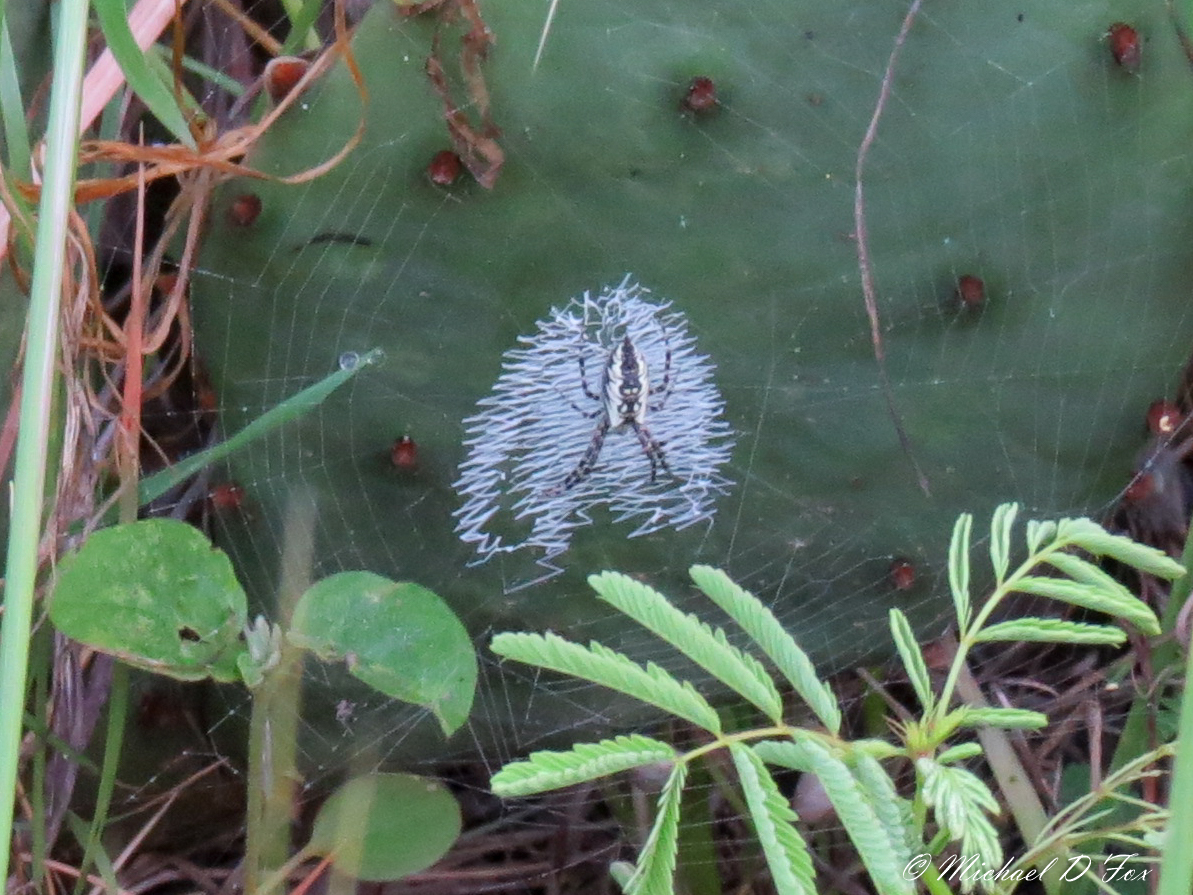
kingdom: Animalia
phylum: Arthropoda
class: Arachnida
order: Araneae
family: Araneidae
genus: Argiope
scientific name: Argiope aurantia
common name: Orb weavers
